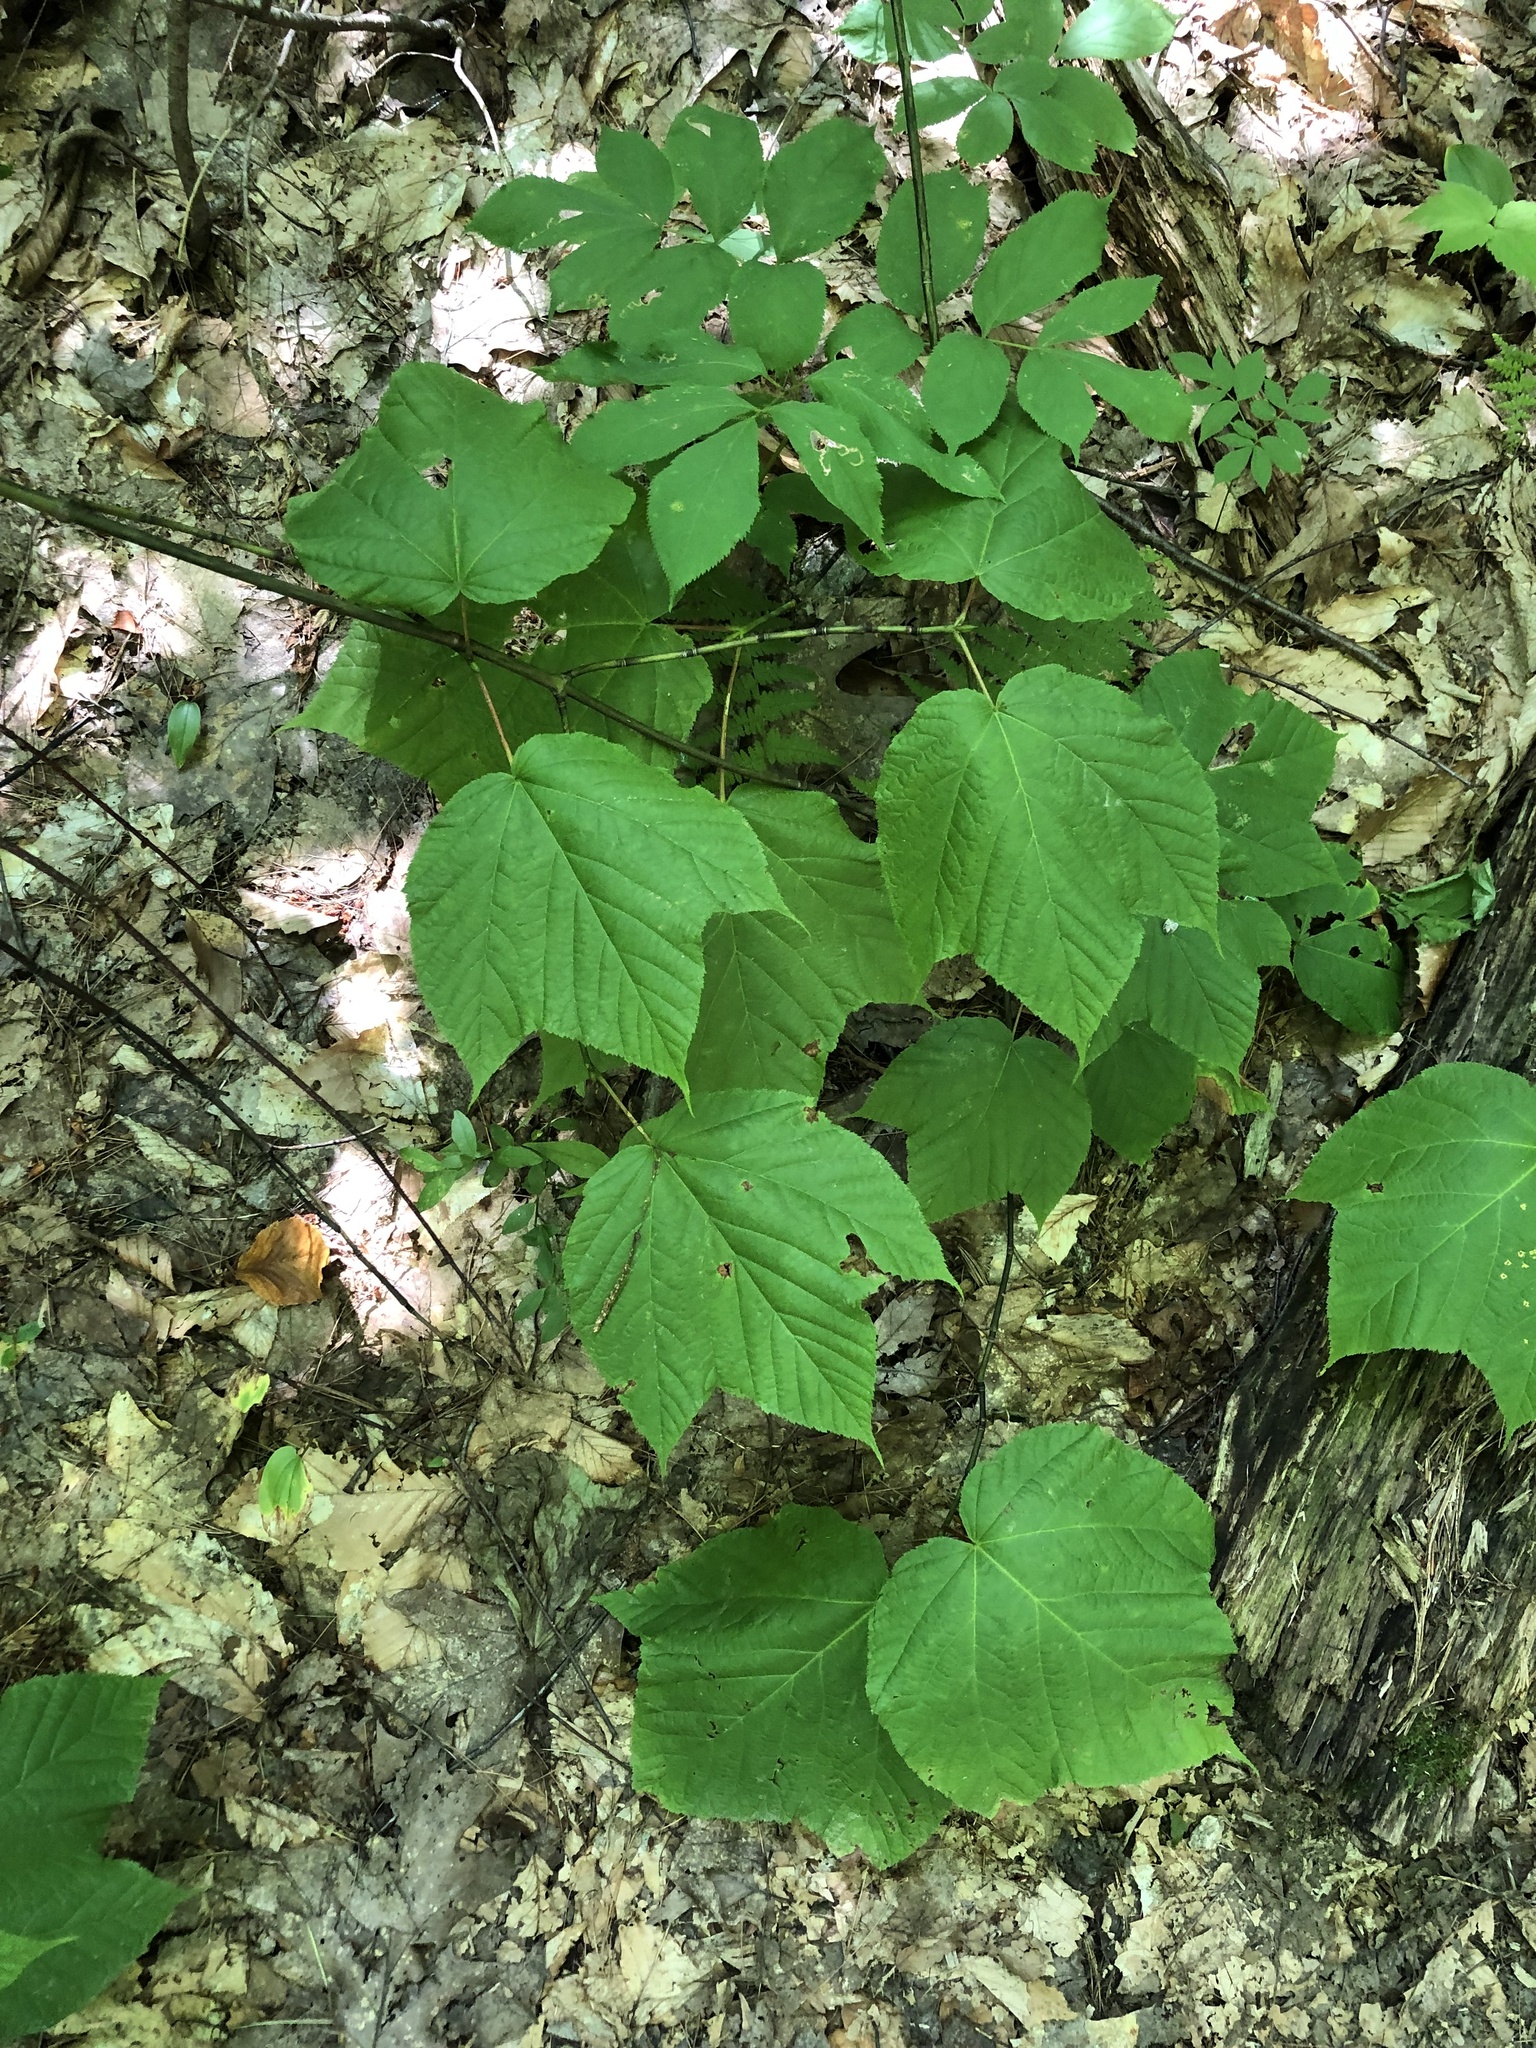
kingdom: Plantae
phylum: Tracheophyta
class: Magnoliopsida
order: Sapindales
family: Sapindaceae
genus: Acer
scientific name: Acer pensylvanicum
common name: Moosewood
